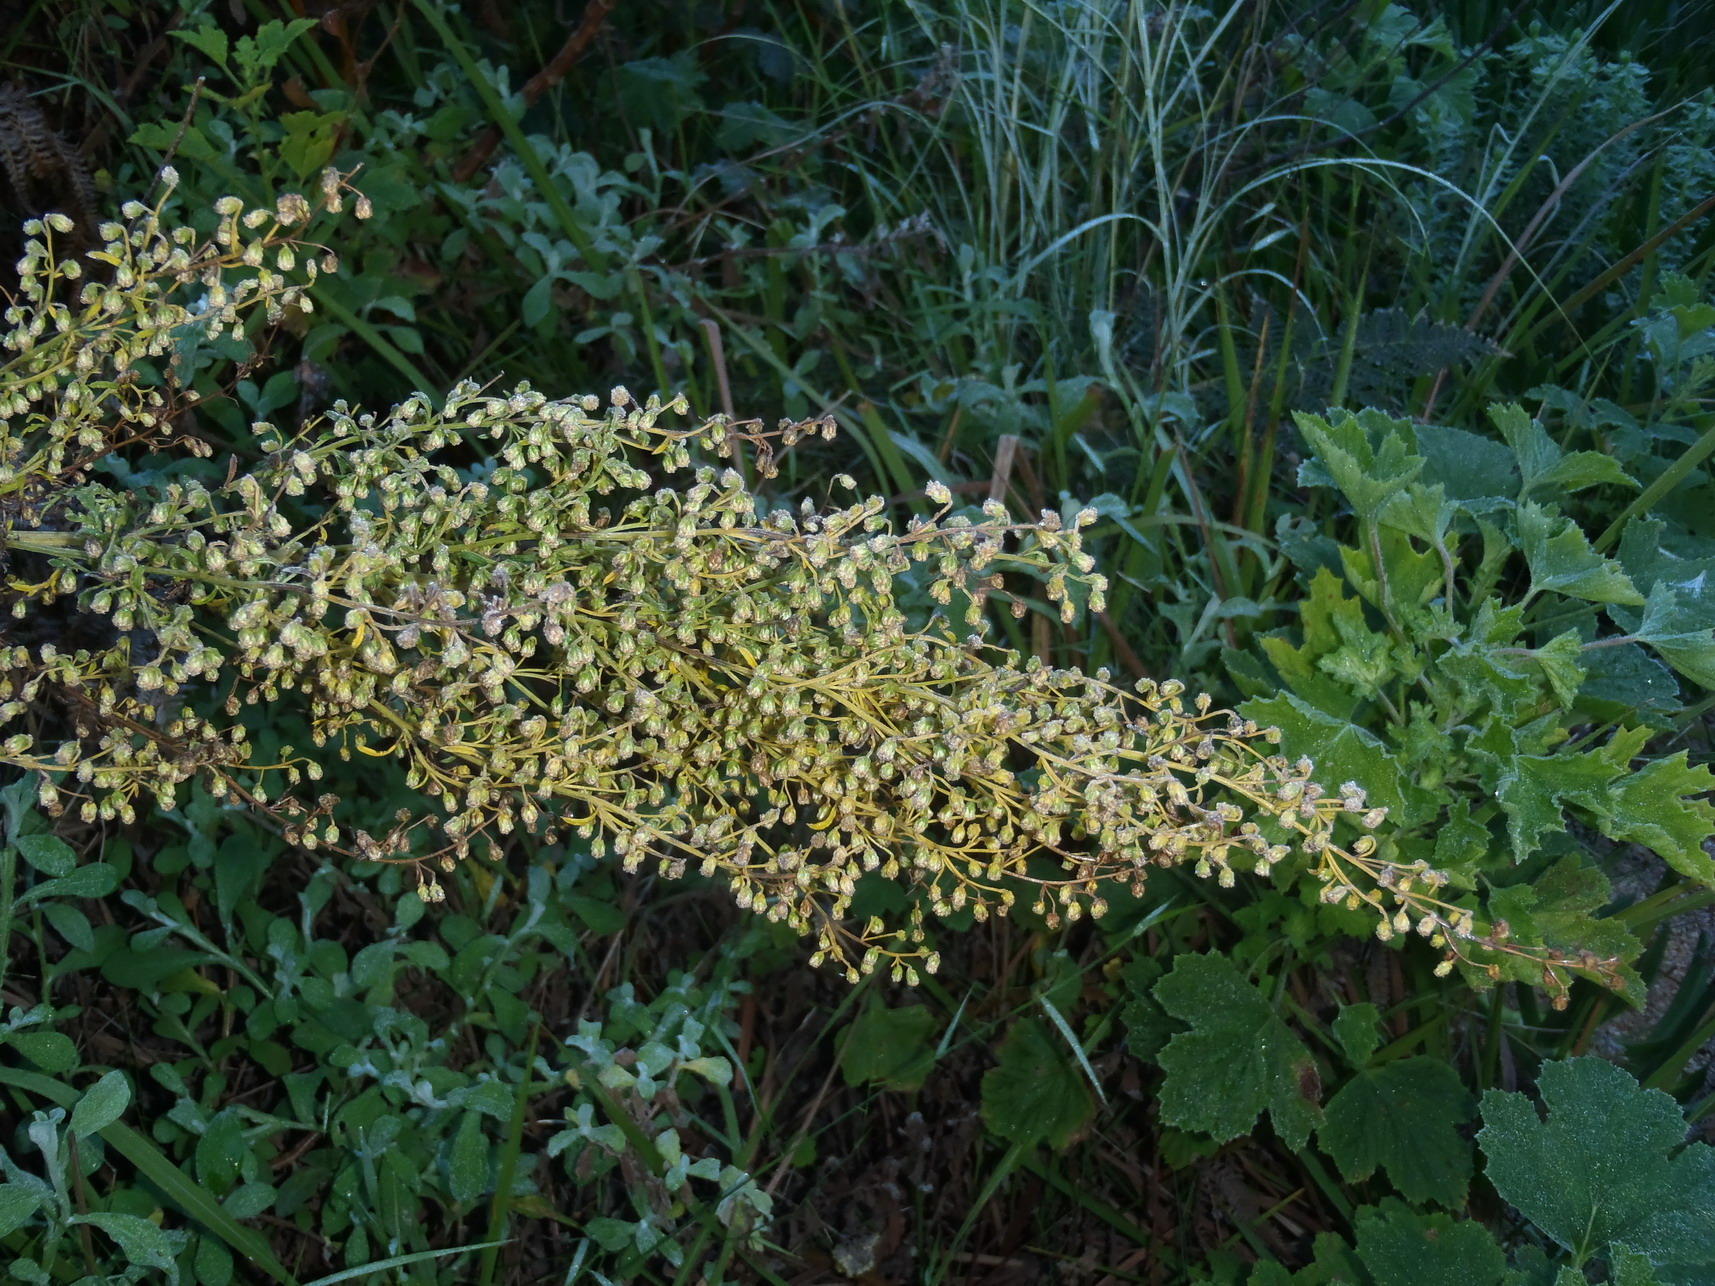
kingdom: Plantae
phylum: Tracheophyta
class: Magnoliopsida
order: Asterales
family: Asteraceae
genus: Artemisia
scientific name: Artemisia afra
